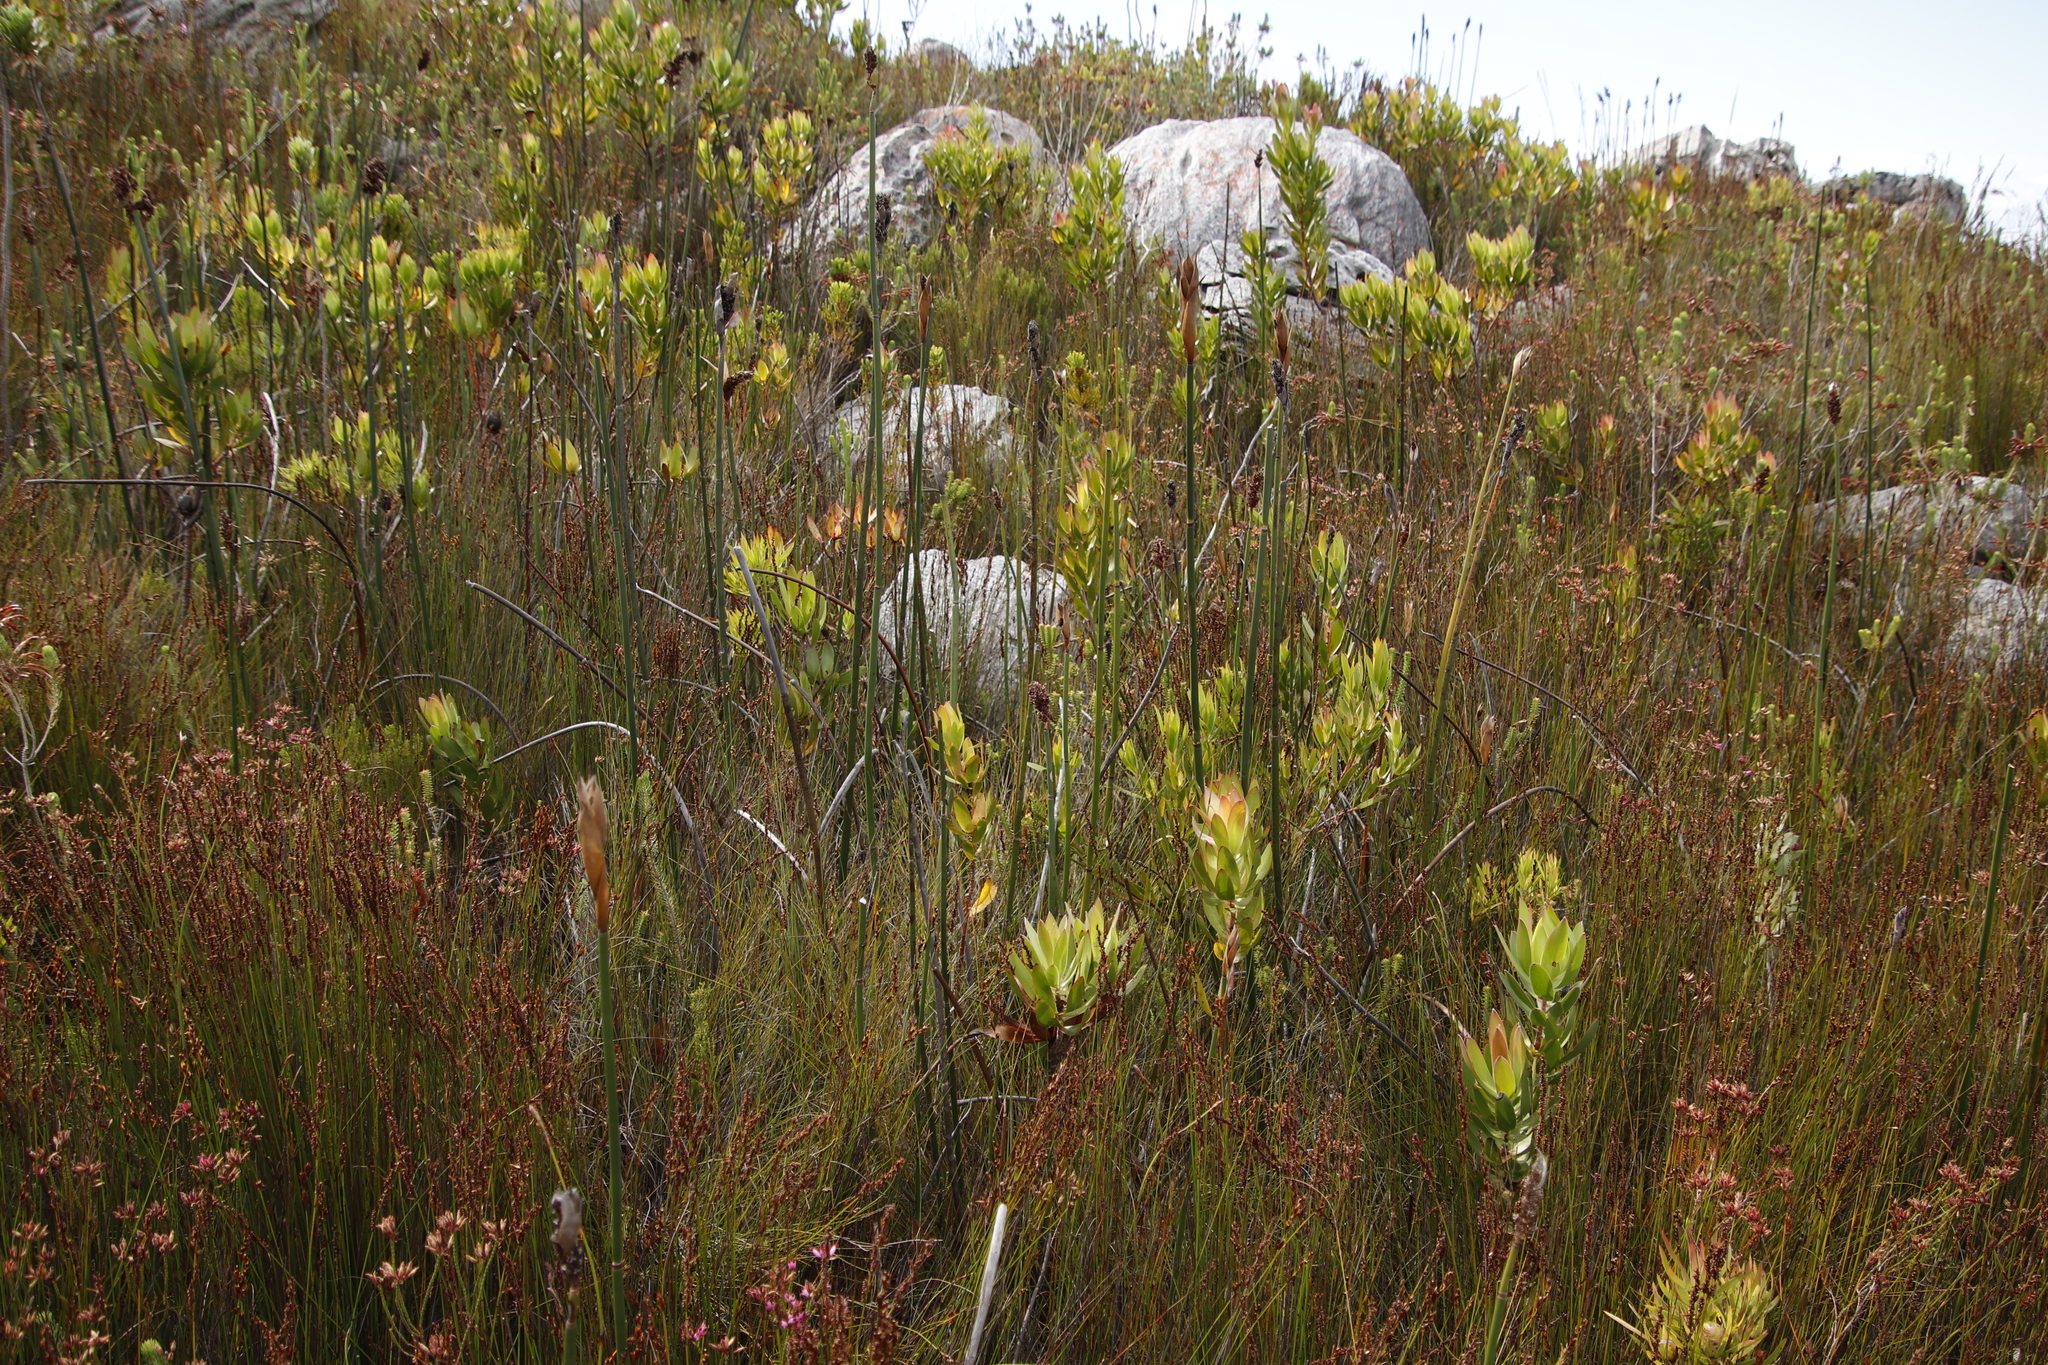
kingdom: Plantae
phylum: Tracheophyta
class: Magnoliopsida
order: Proteales
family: Proteaceae
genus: Leucadendron
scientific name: Leucadendron gandogeri
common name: Broad-leaf conebush
